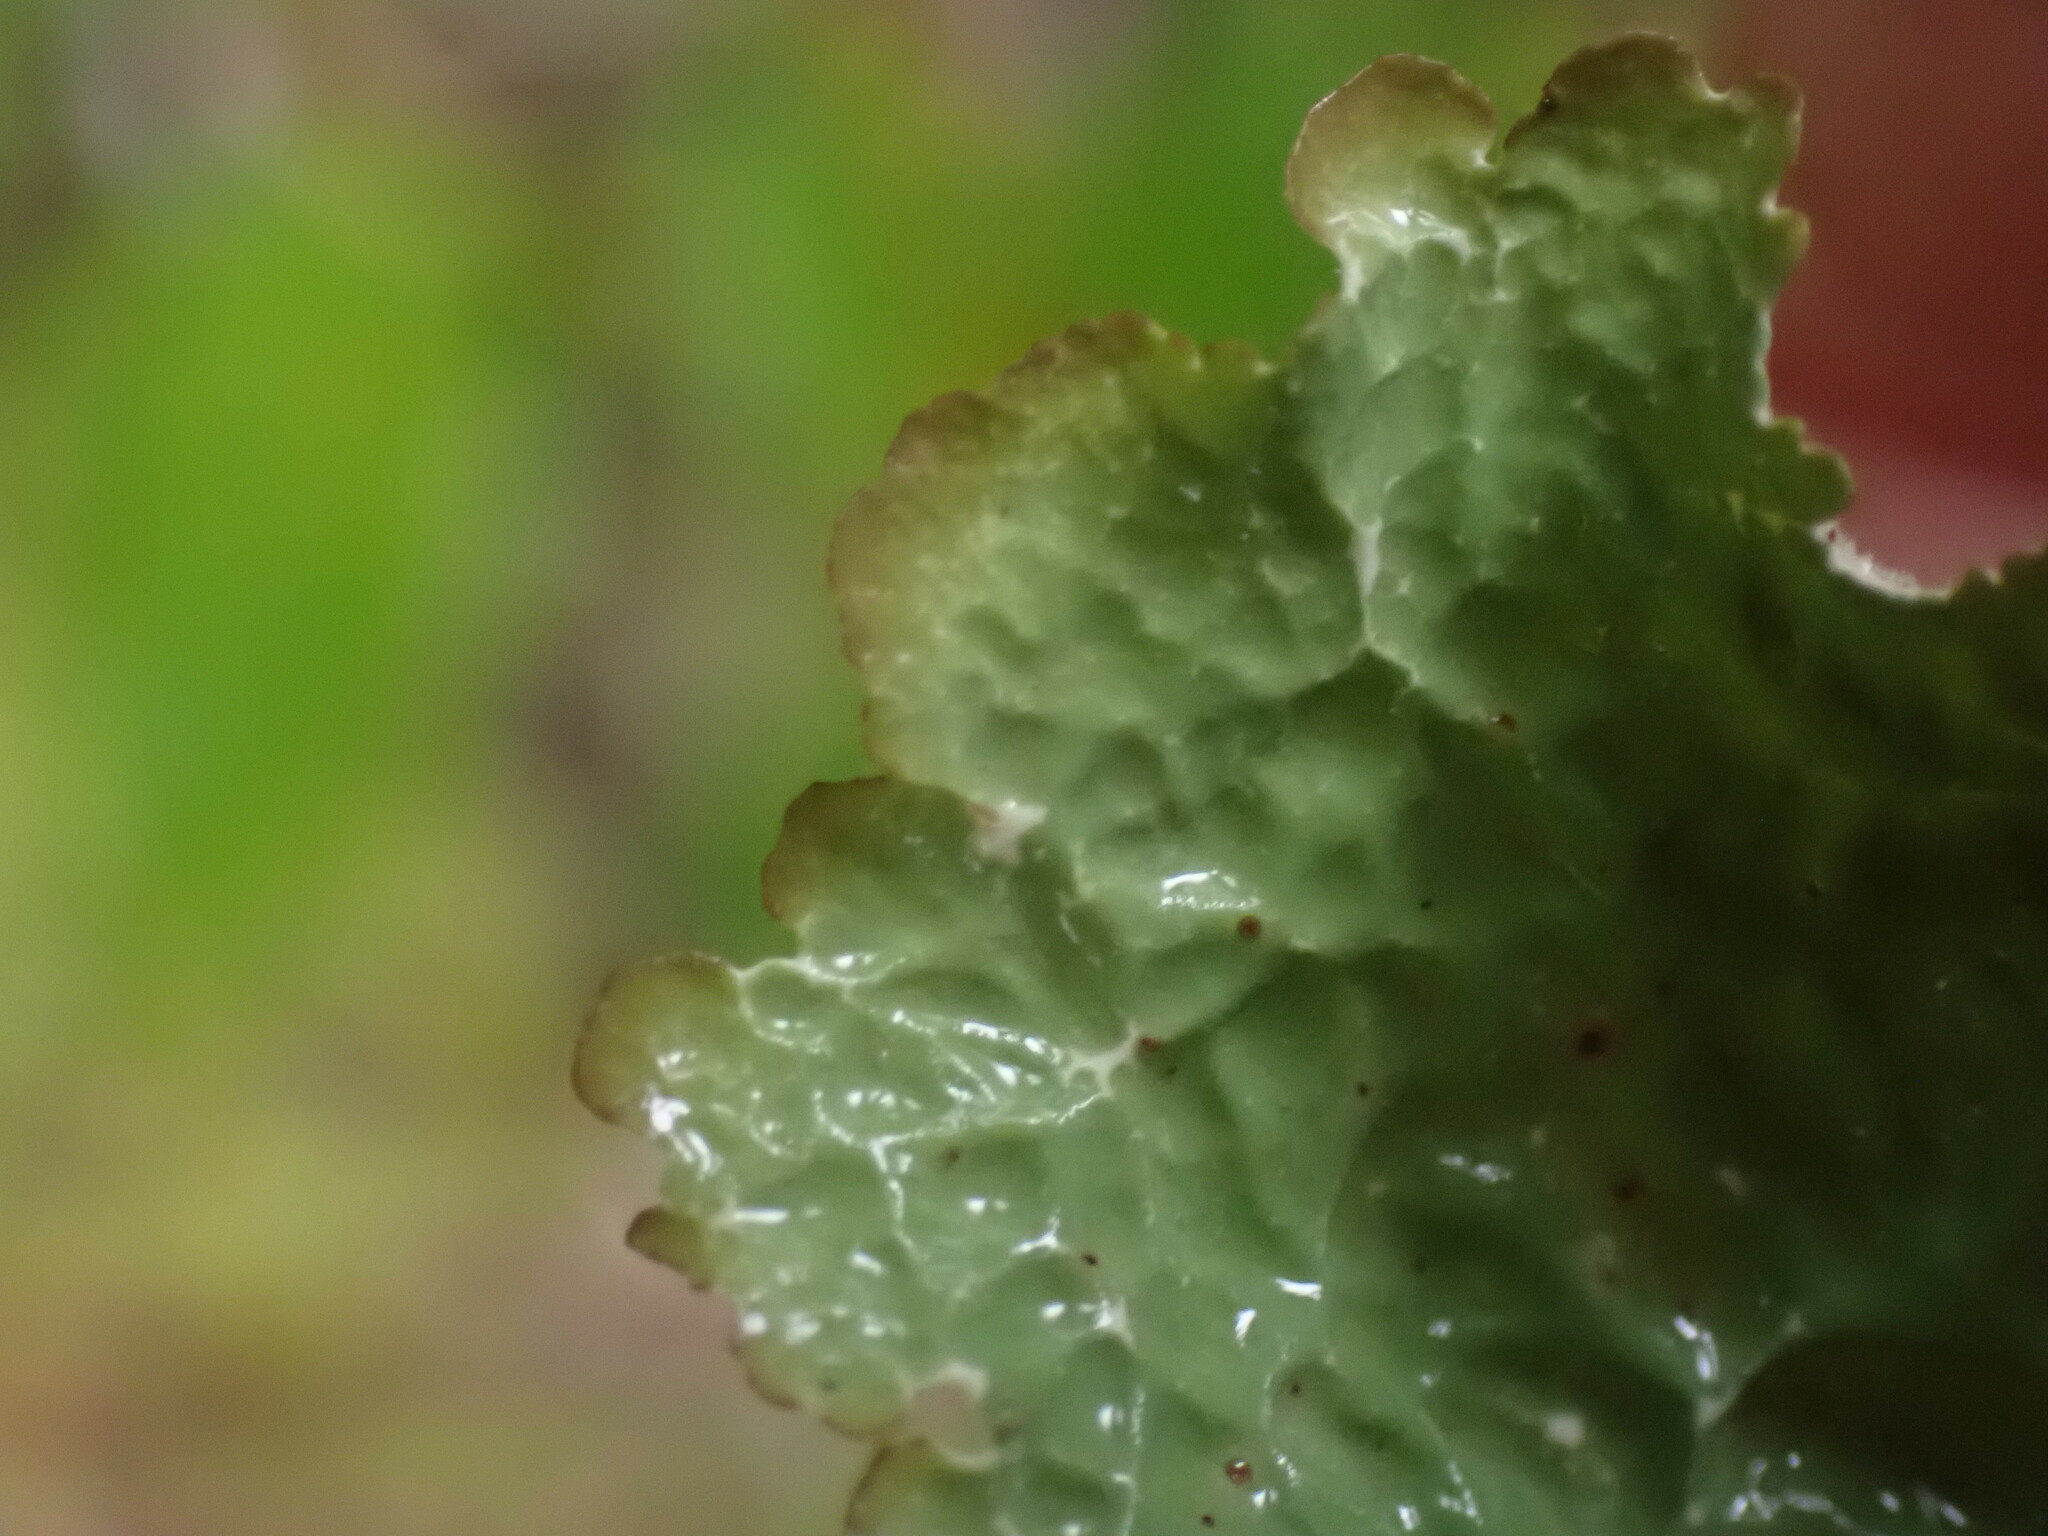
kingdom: Fungi
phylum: Ascomycota
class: Lecanoromycetes
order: Peltigerales
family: Lobariaceae
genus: Lobaria
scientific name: Lobaria oregana
